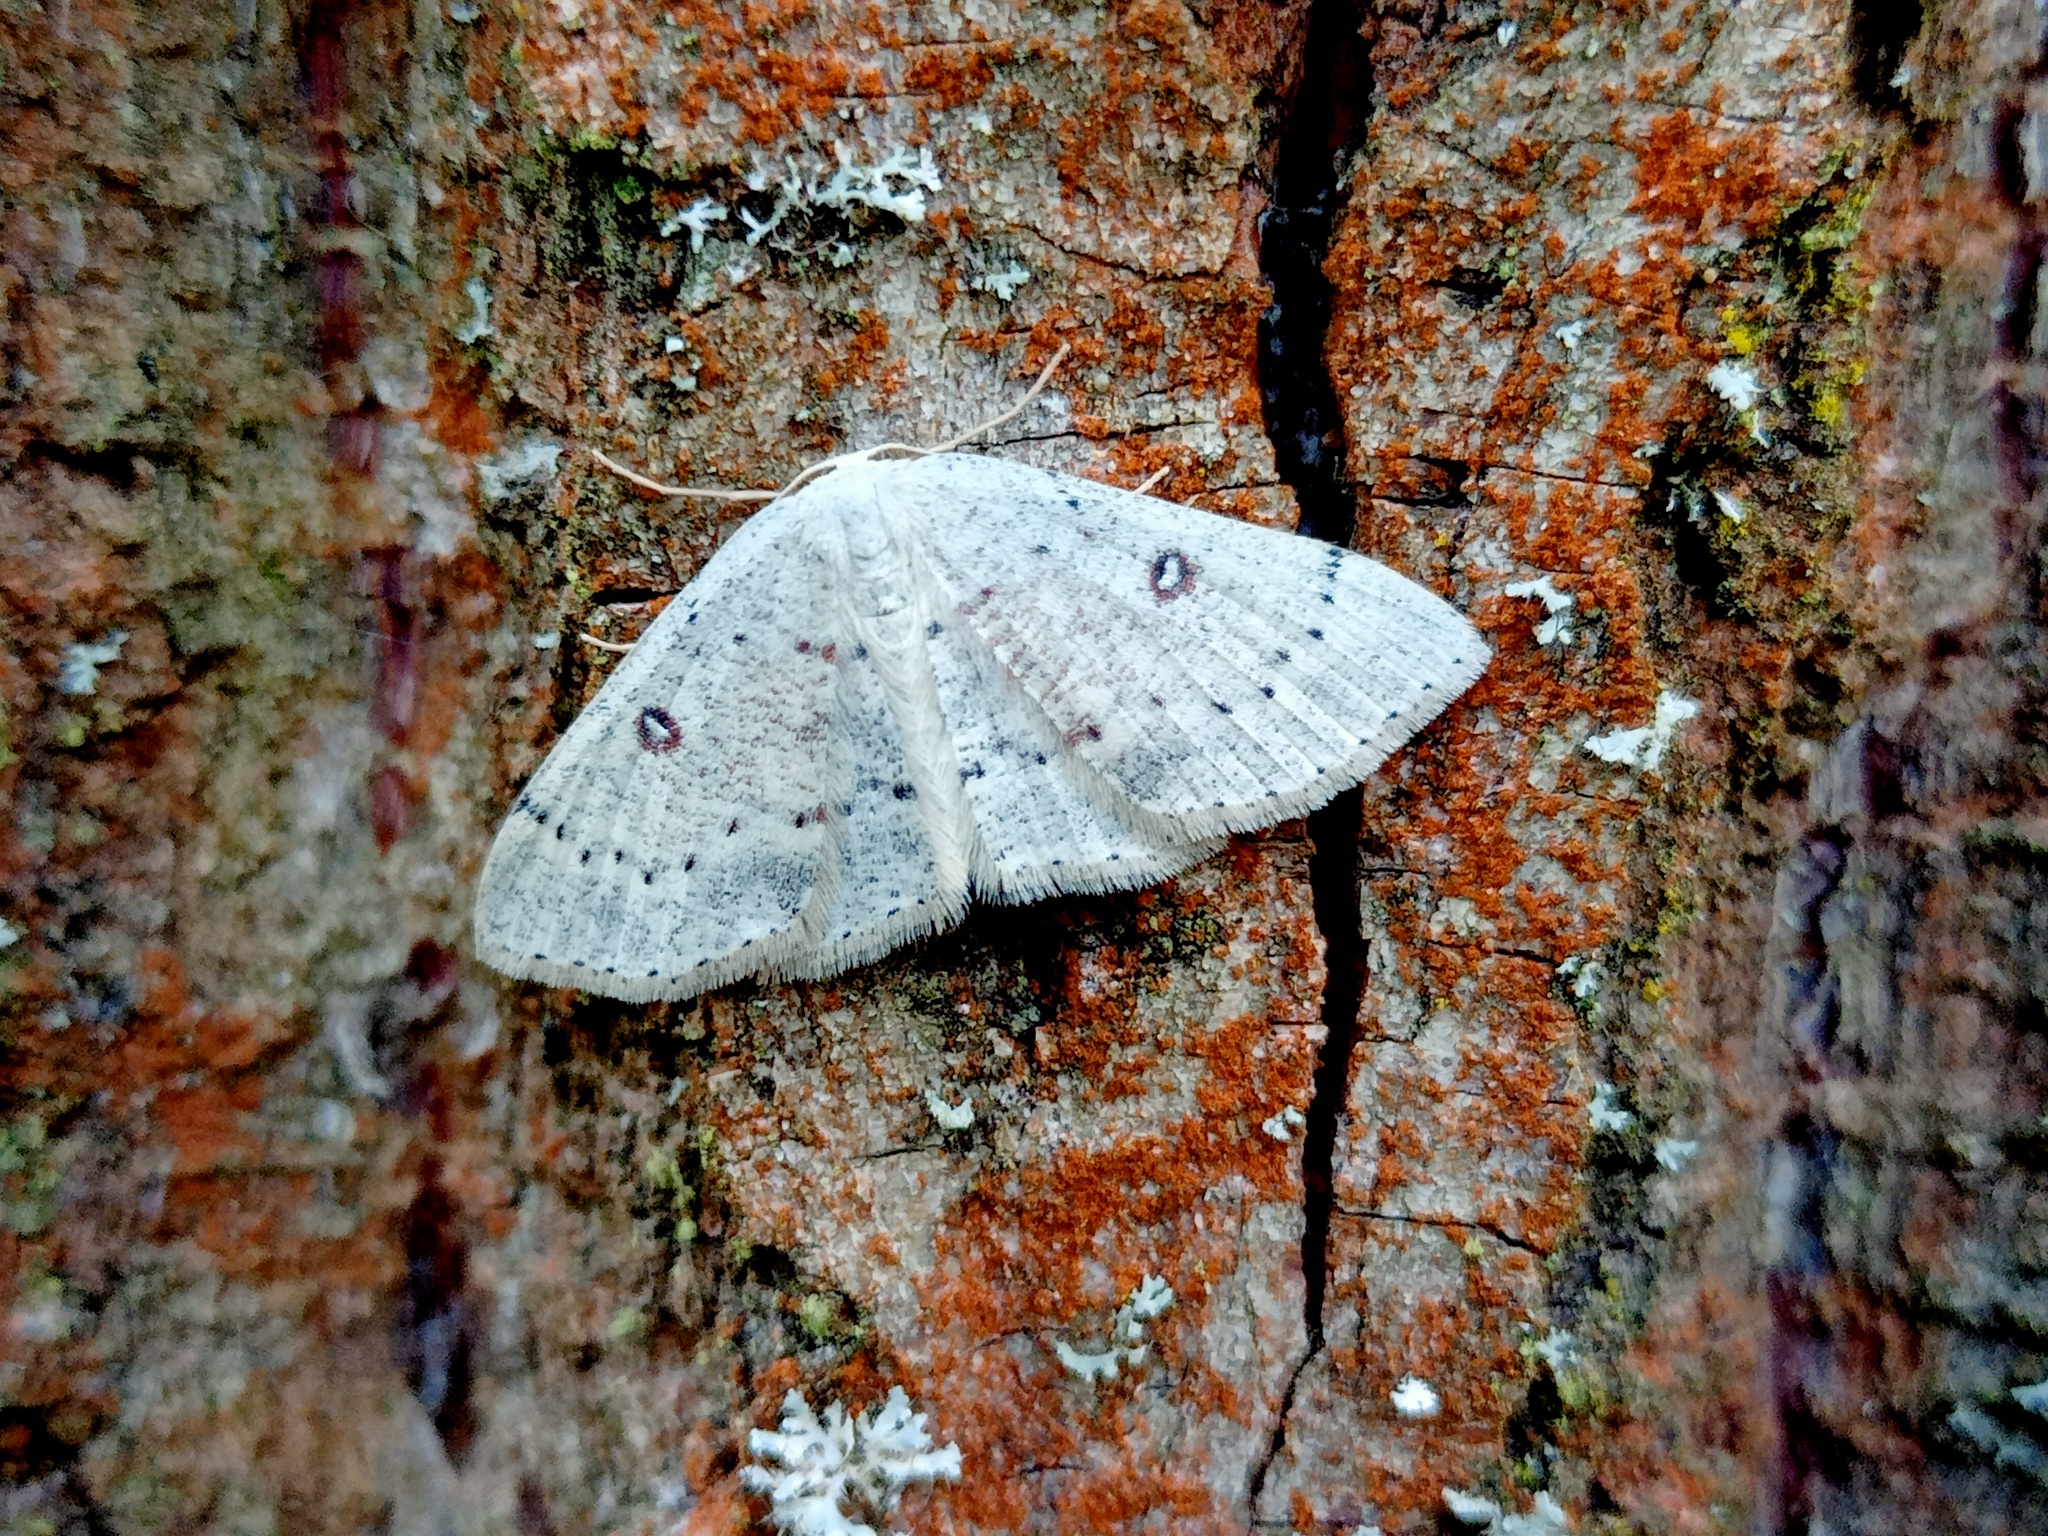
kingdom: Animalia
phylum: Arthropoda
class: Insecta
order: Lepidoptera
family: Geometridae
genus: Cyclophora
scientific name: Cyclophora albipunctata
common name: Birch mocha
